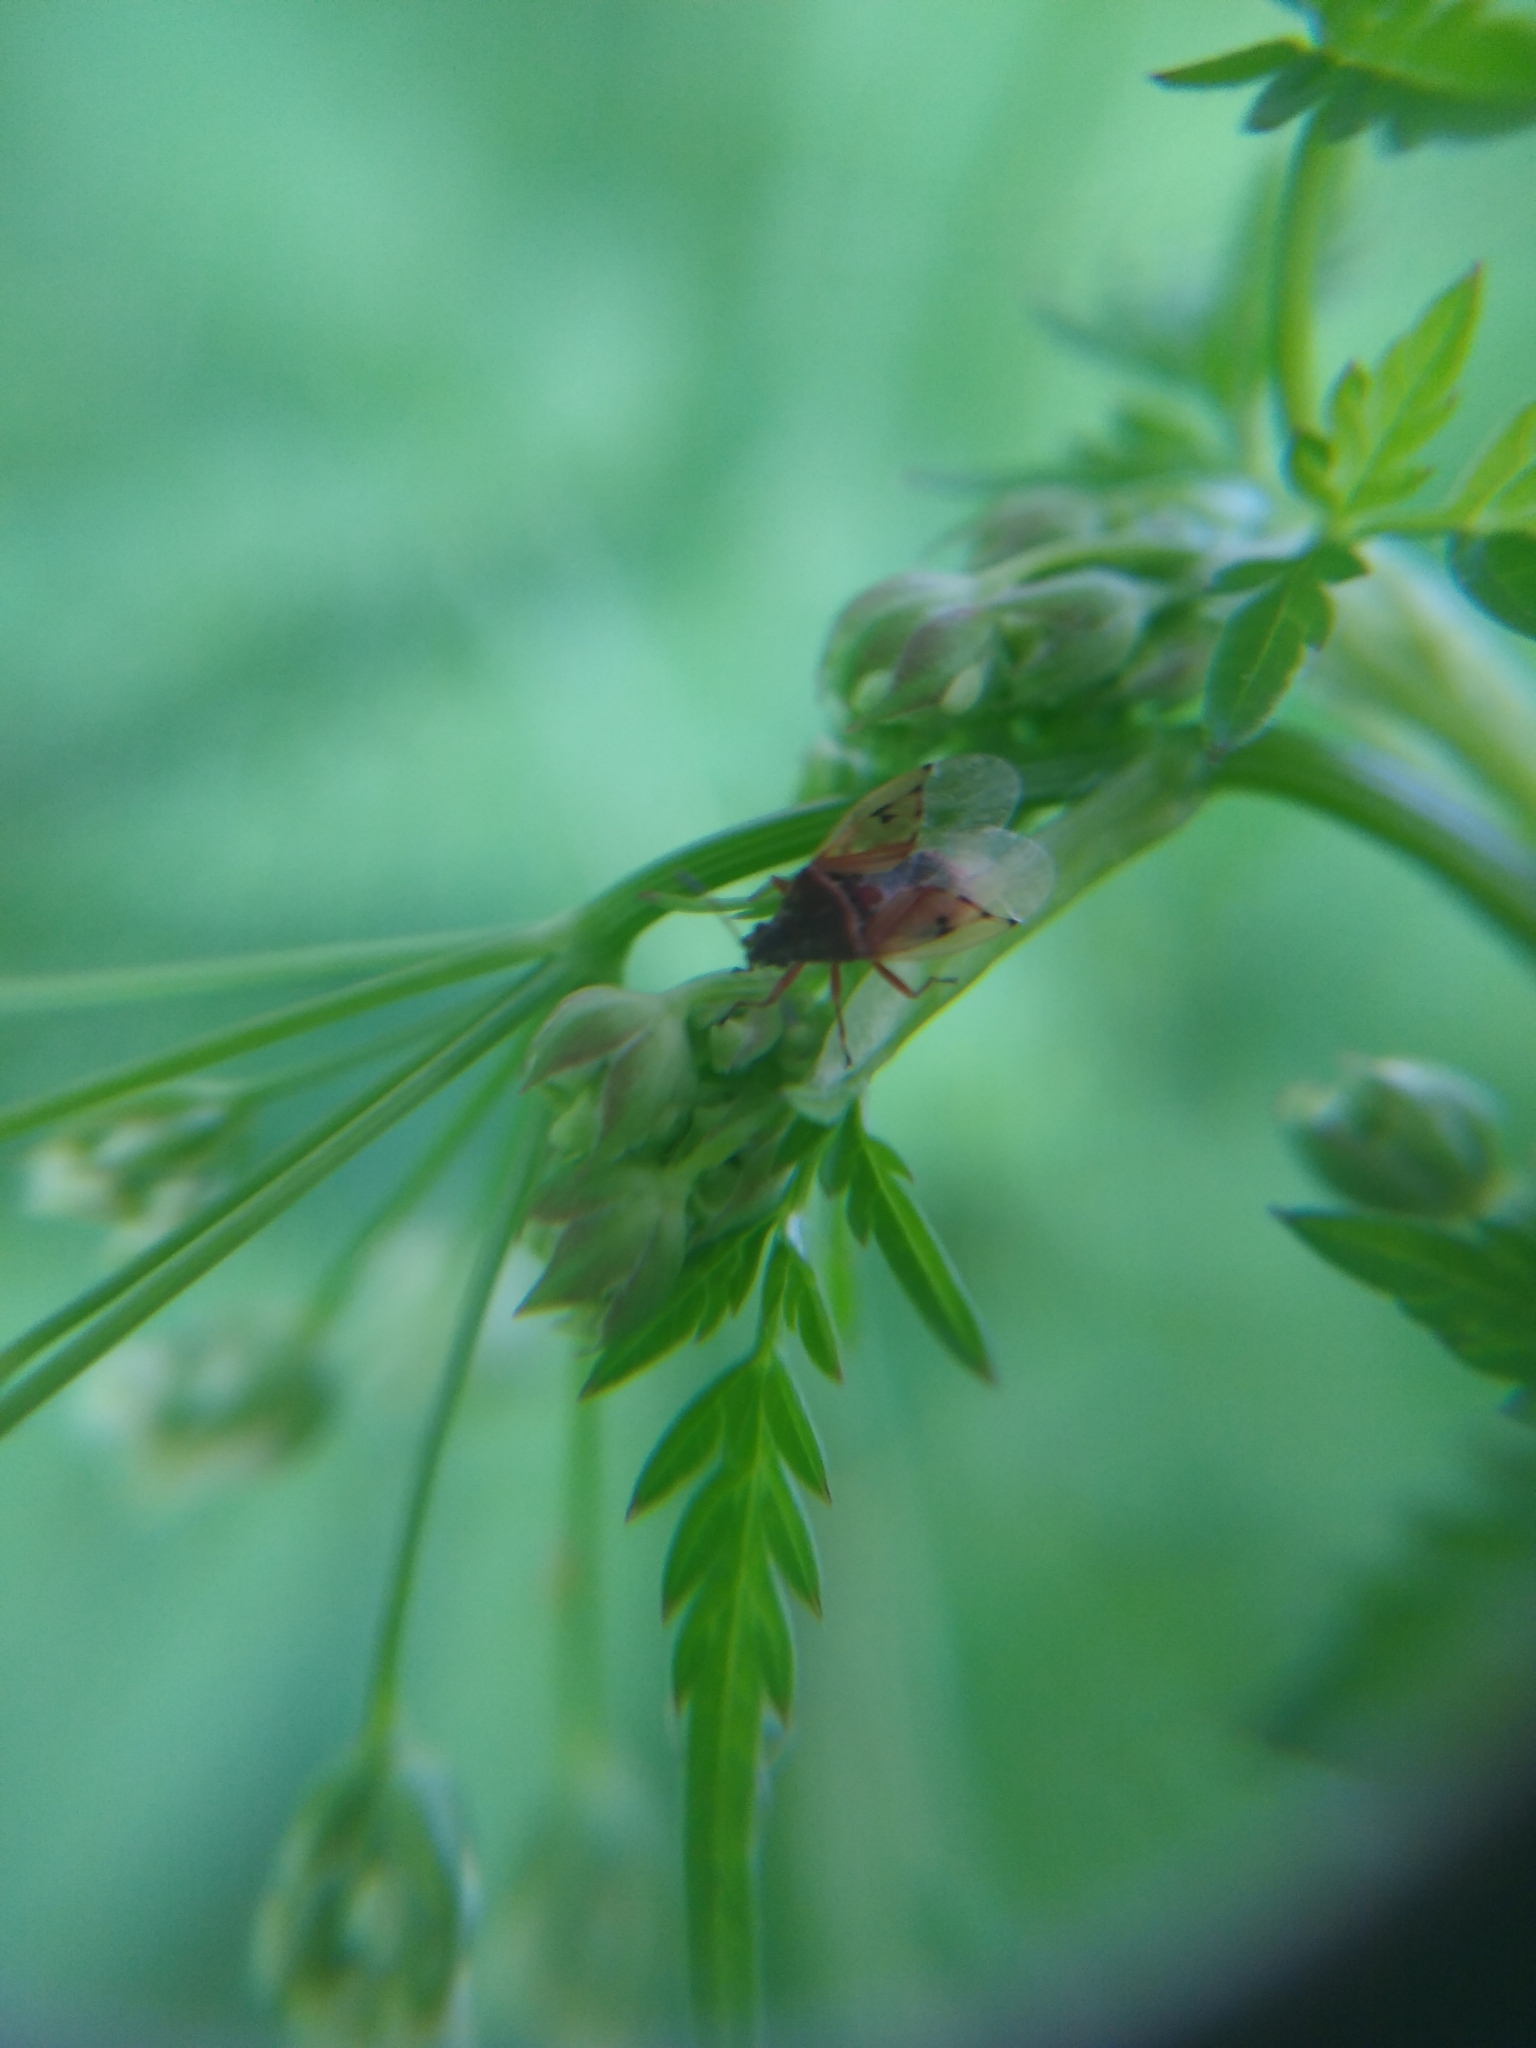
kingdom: Animalia
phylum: Arthropoda
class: Insecta
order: Hemiptera
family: Lygaeidae
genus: Kleidocerys
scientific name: Kleidocerys resedae
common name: Birch catkin bug
